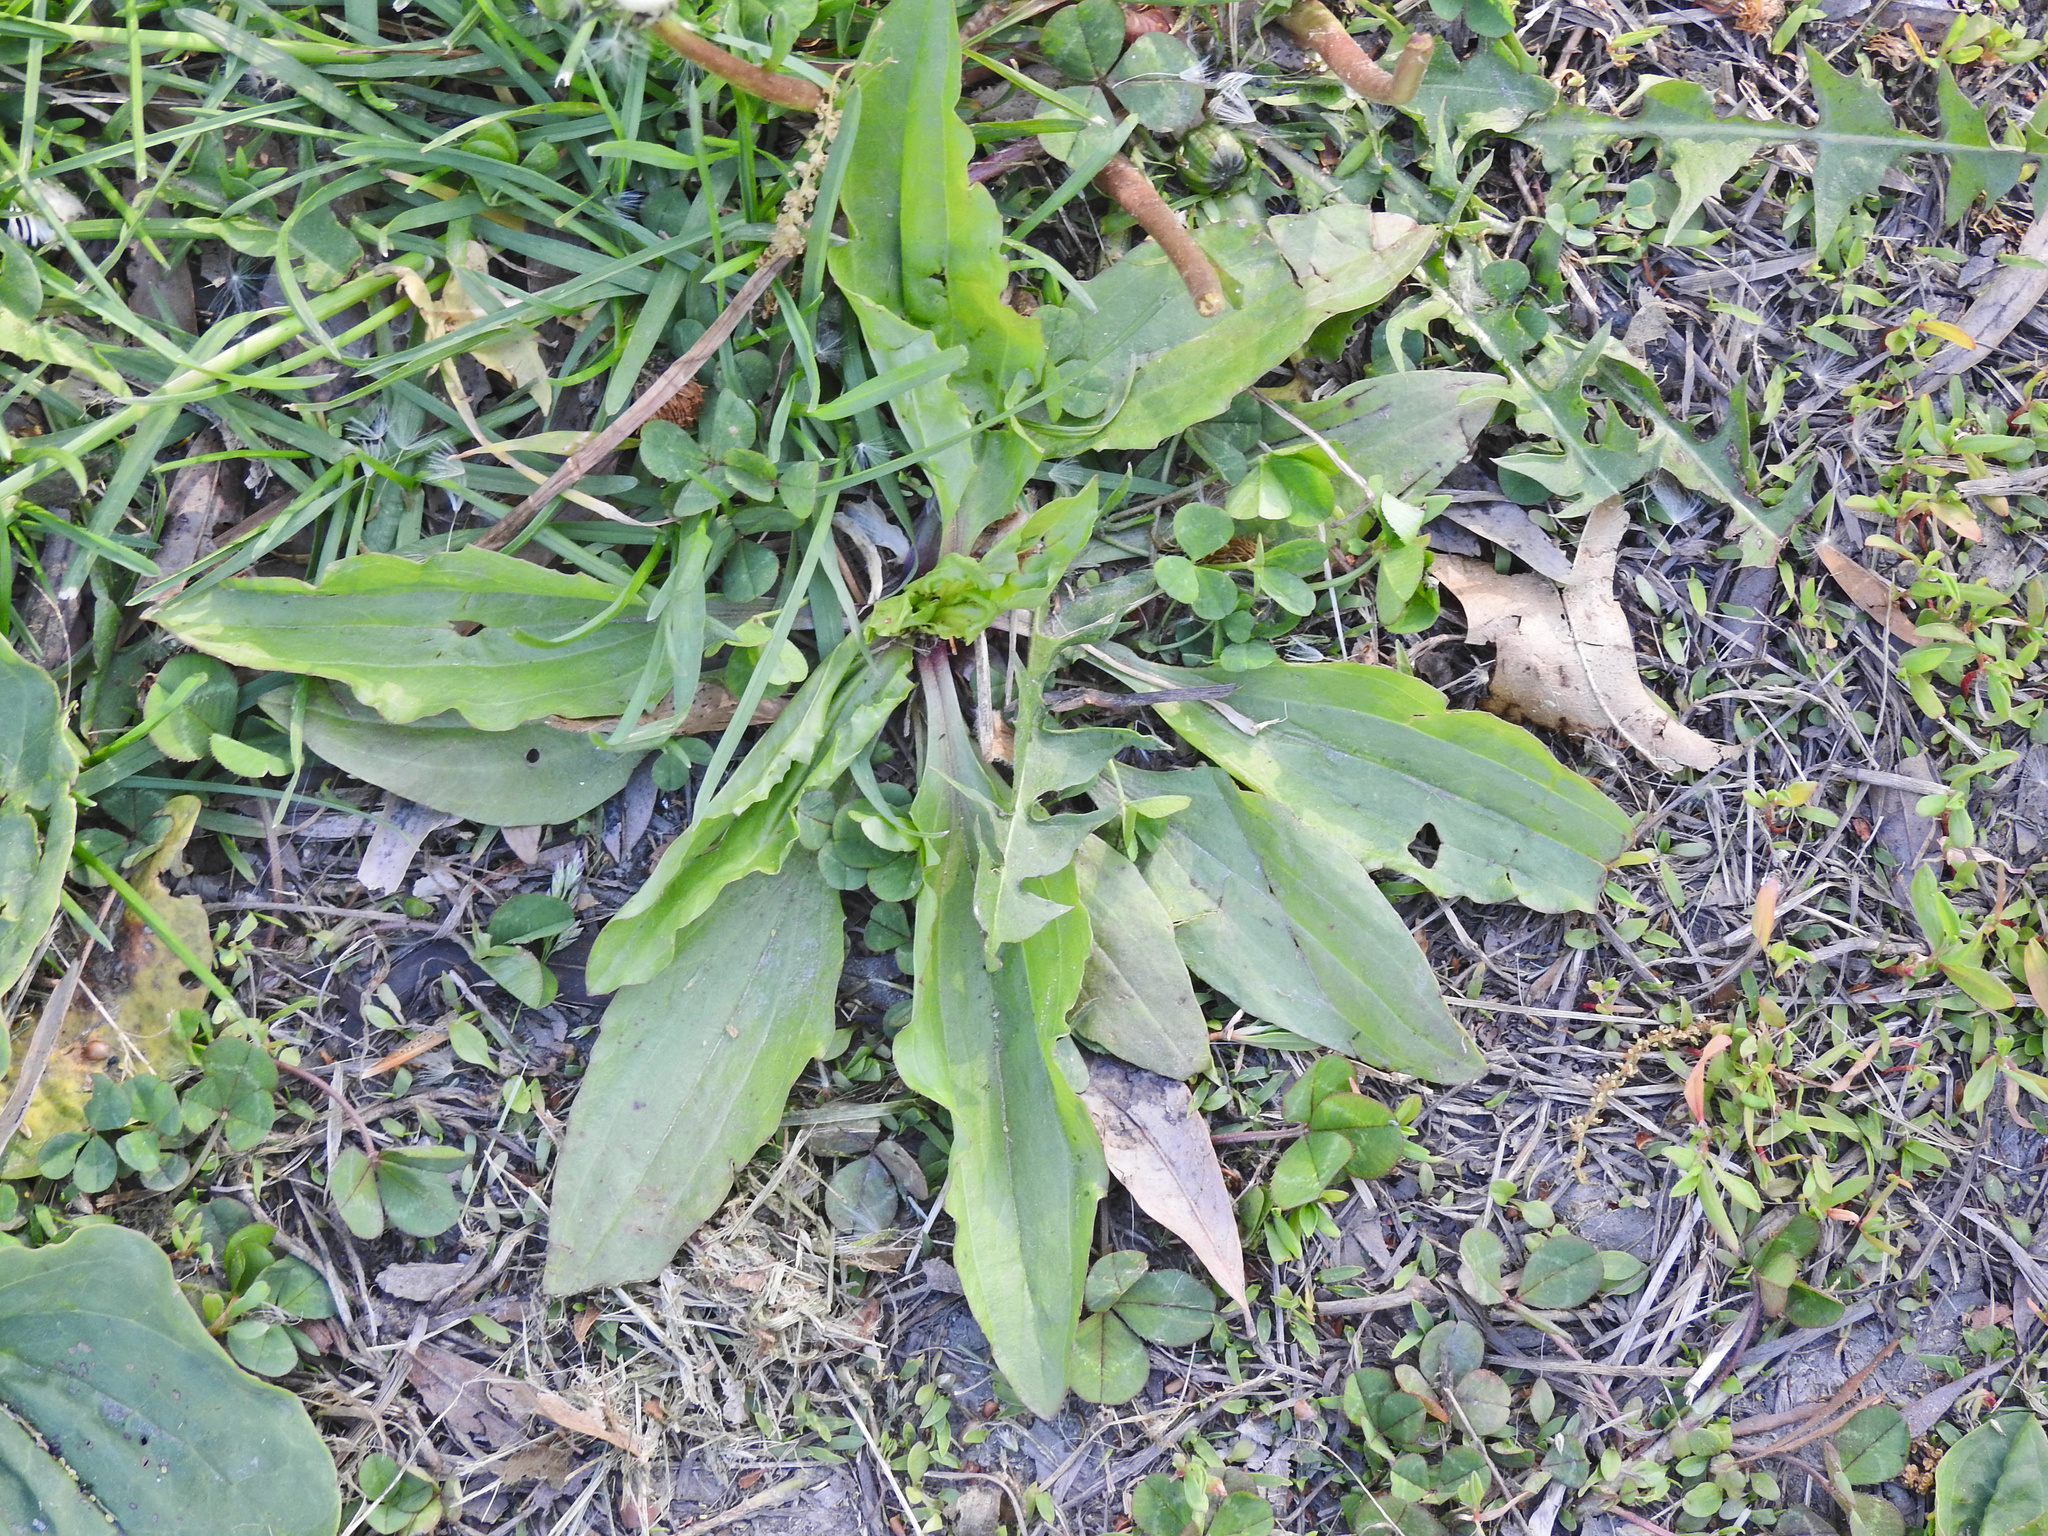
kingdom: Plantae
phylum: Tracheophyta
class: Magnoliopsida
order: Lamiales
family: Plantaginaceae
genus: Plantago
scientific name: Plantago rugelii
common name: American plantain
